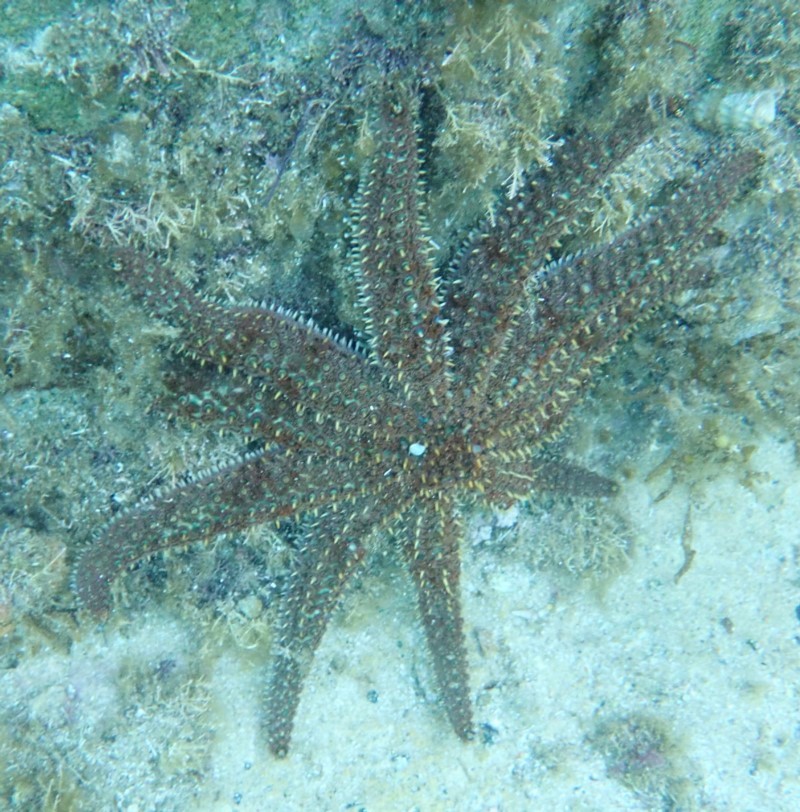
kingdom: Animalia
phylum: Echinodermata
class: Asteroidea
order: Forcipulatida
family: Asteriidae
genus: Coscinasterias
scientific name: Coscinasterias muricata
